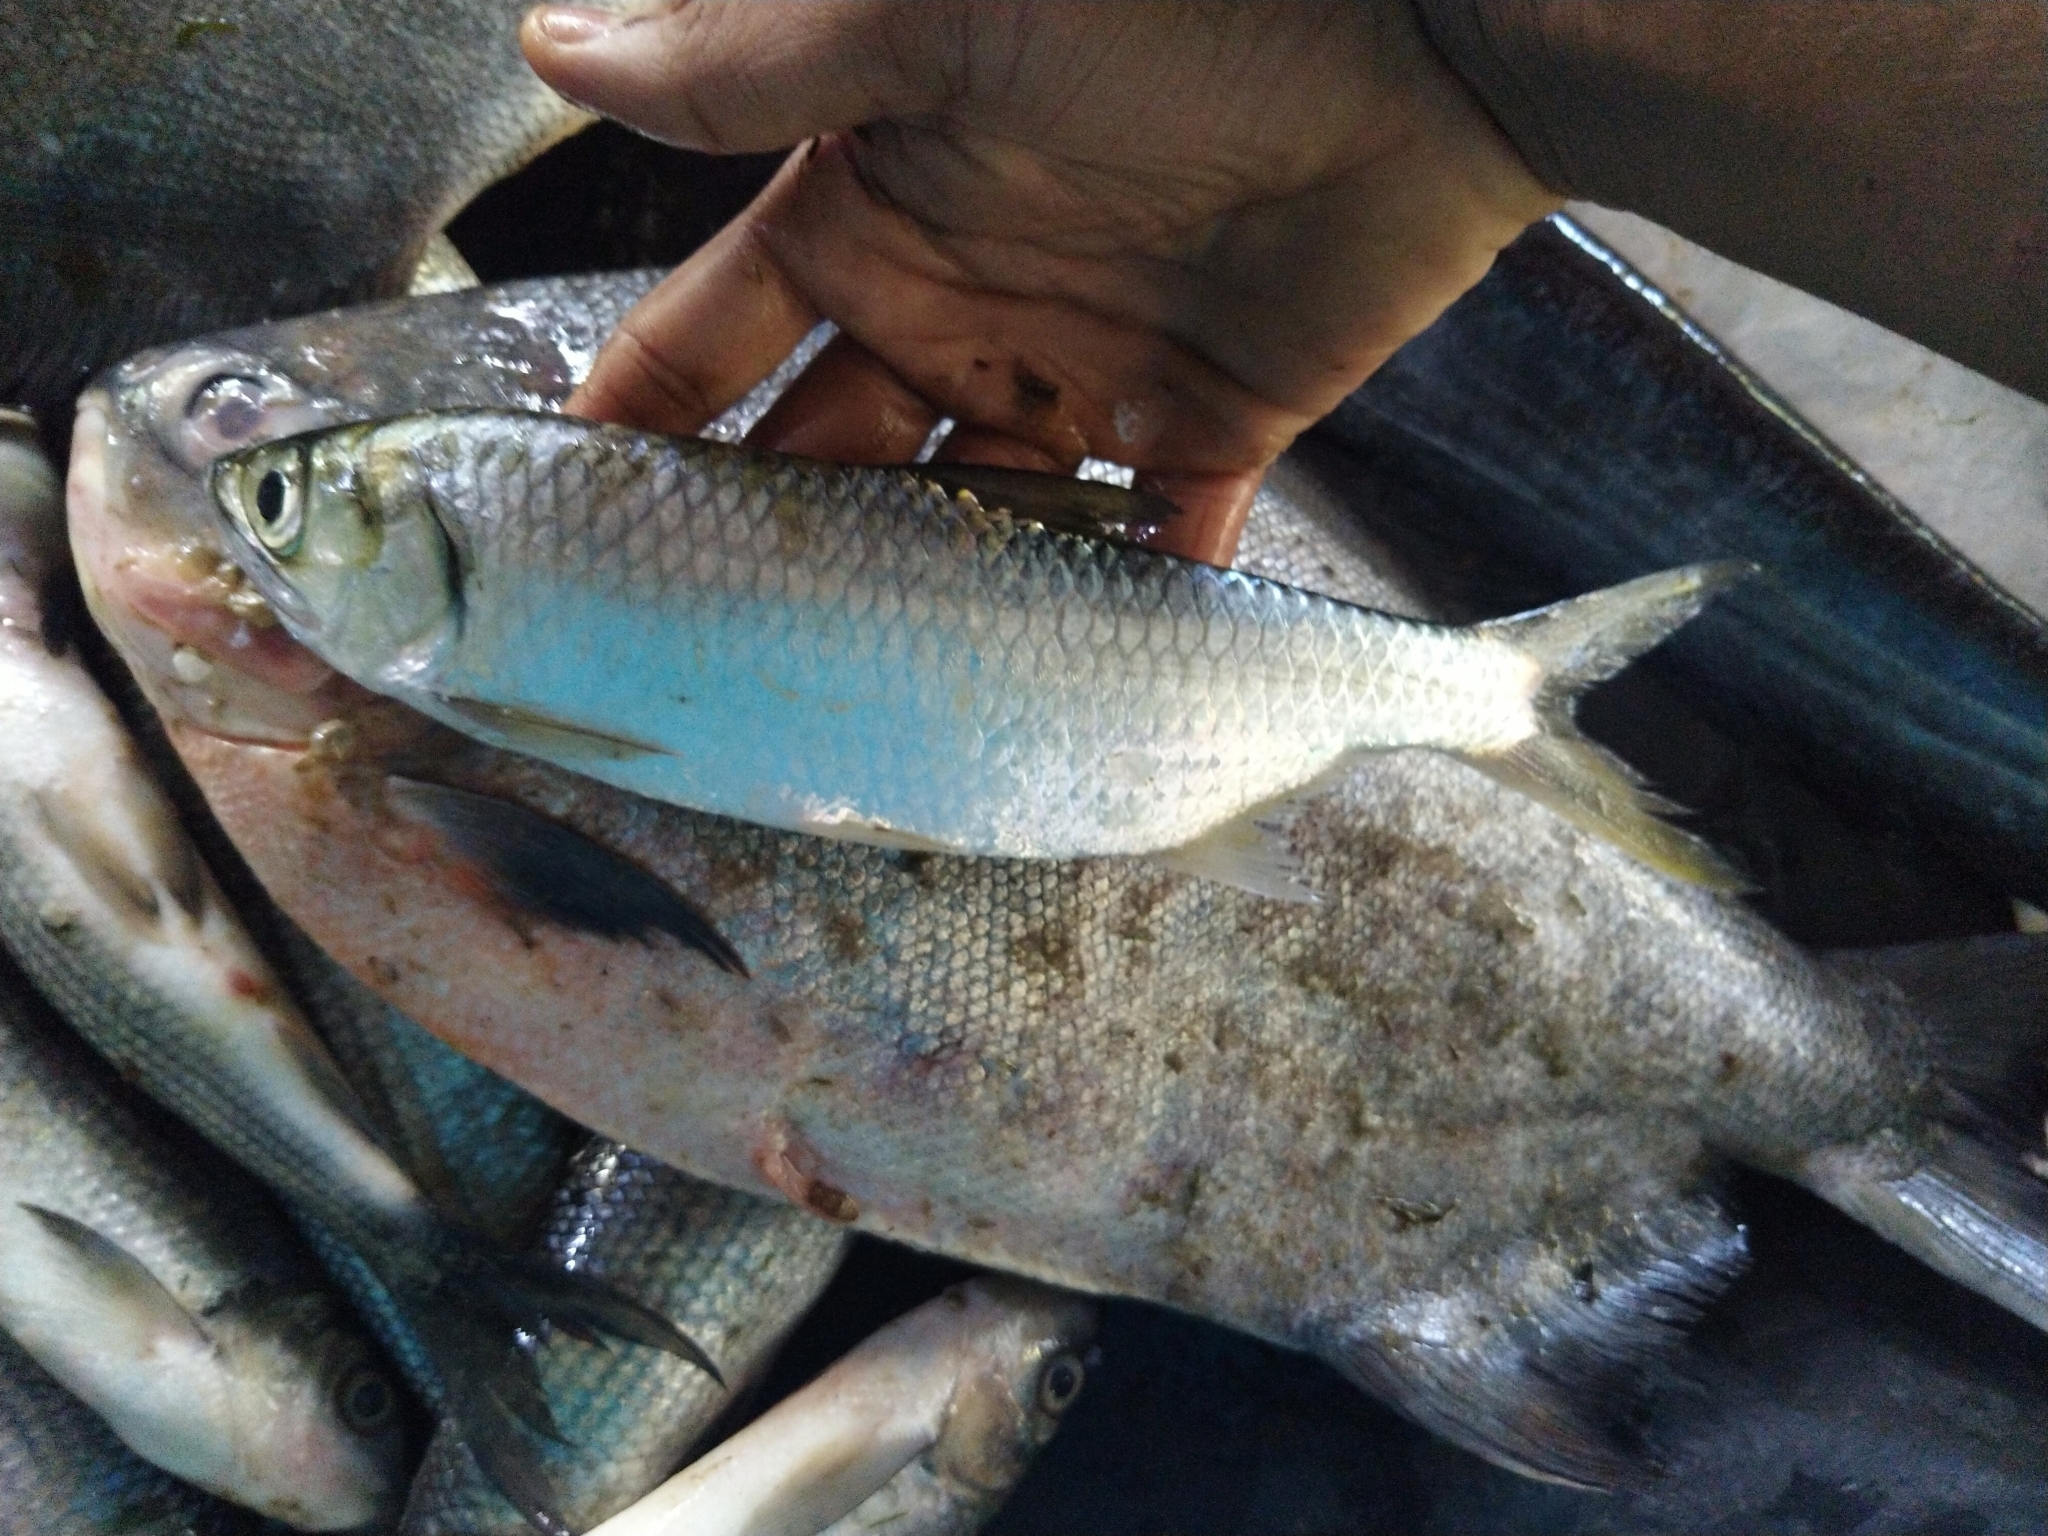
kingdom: Animalia
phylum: Chordata
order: Elopiformes
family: Megalopidae
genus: Megalops
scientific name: Megalops cyprinoides
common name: Indo-pacific tarpon
